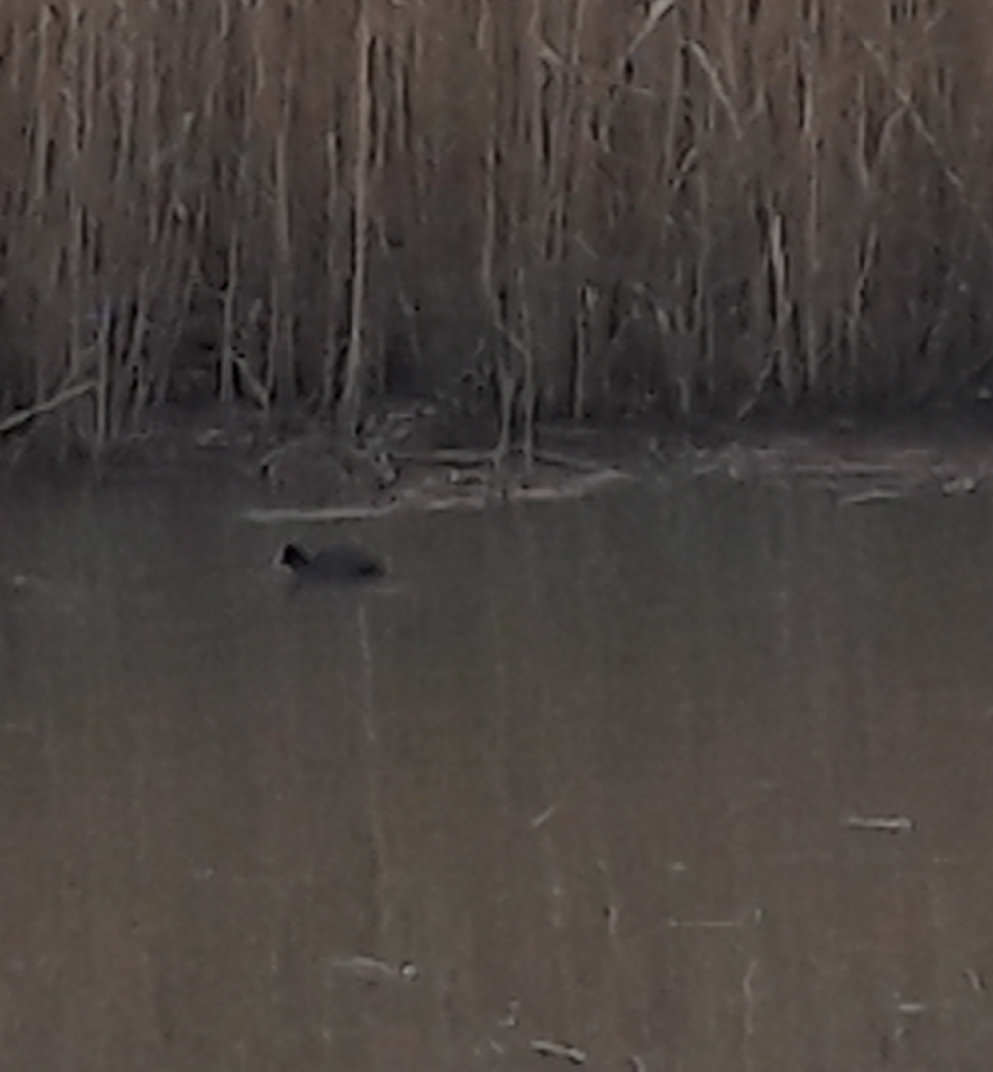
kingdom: Animalia
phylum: Chordata
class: Aves
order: Gruiformes
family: Rallidae
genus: Fulica
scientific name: Fulica atra
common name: Eurasian coot
